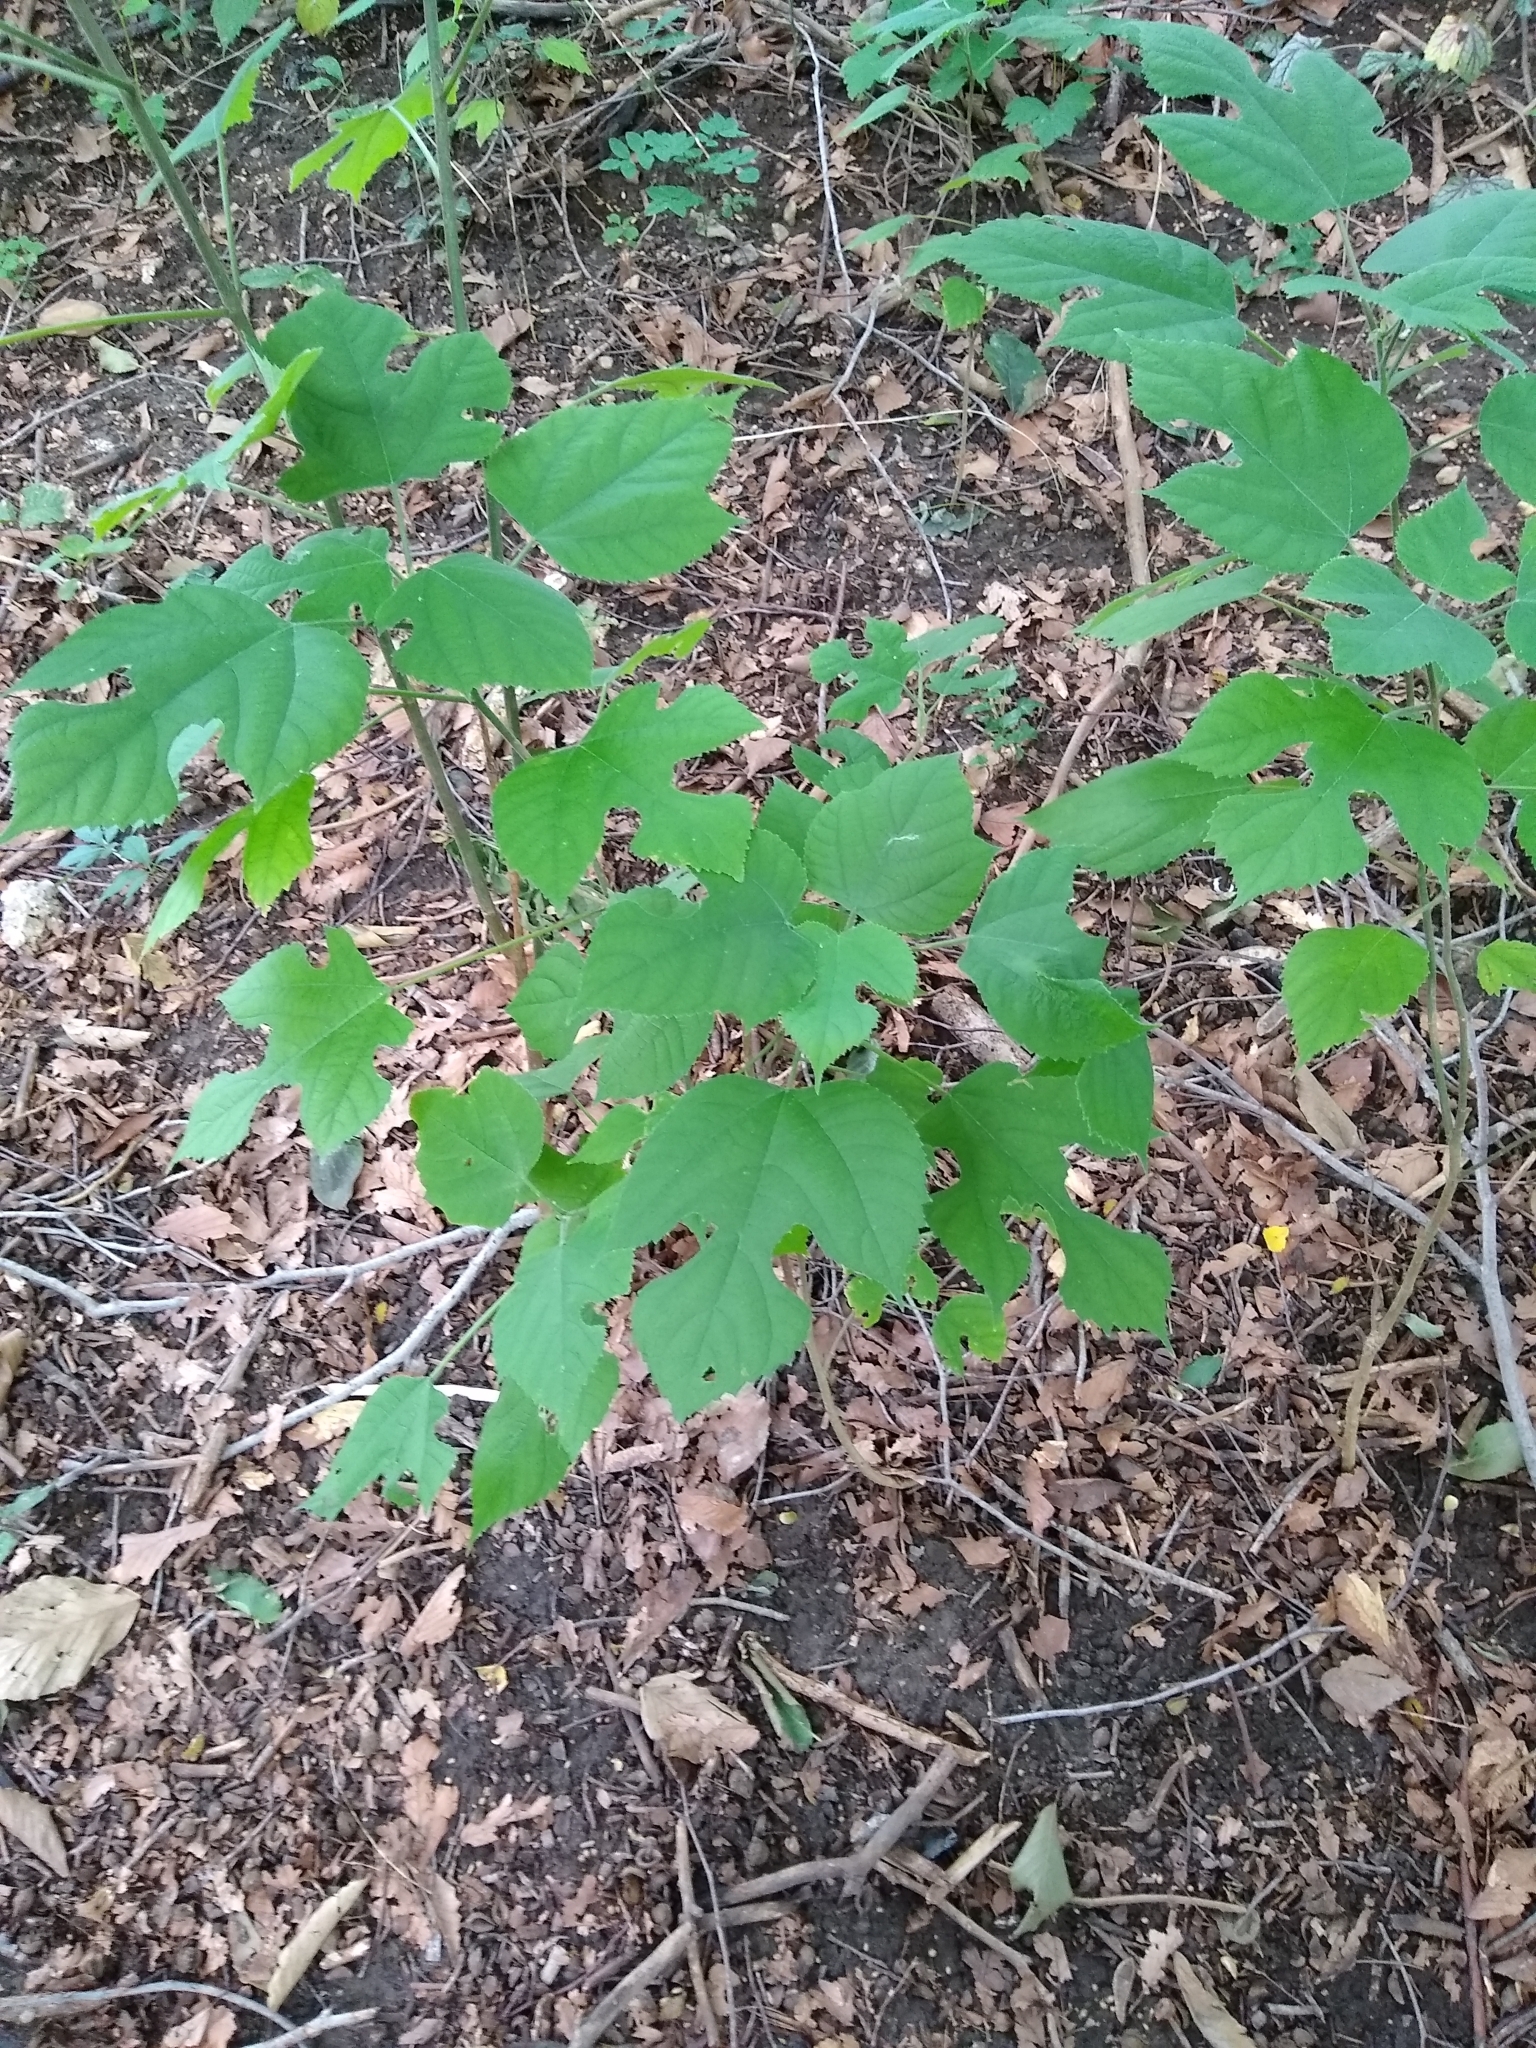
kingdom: Plantae
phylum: Tracheophyta
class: Magnoliopsida
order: Rosales
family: Moraceae
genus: Broussonetia
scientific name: Broussonetia papyrifera
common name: Paper mulberry
